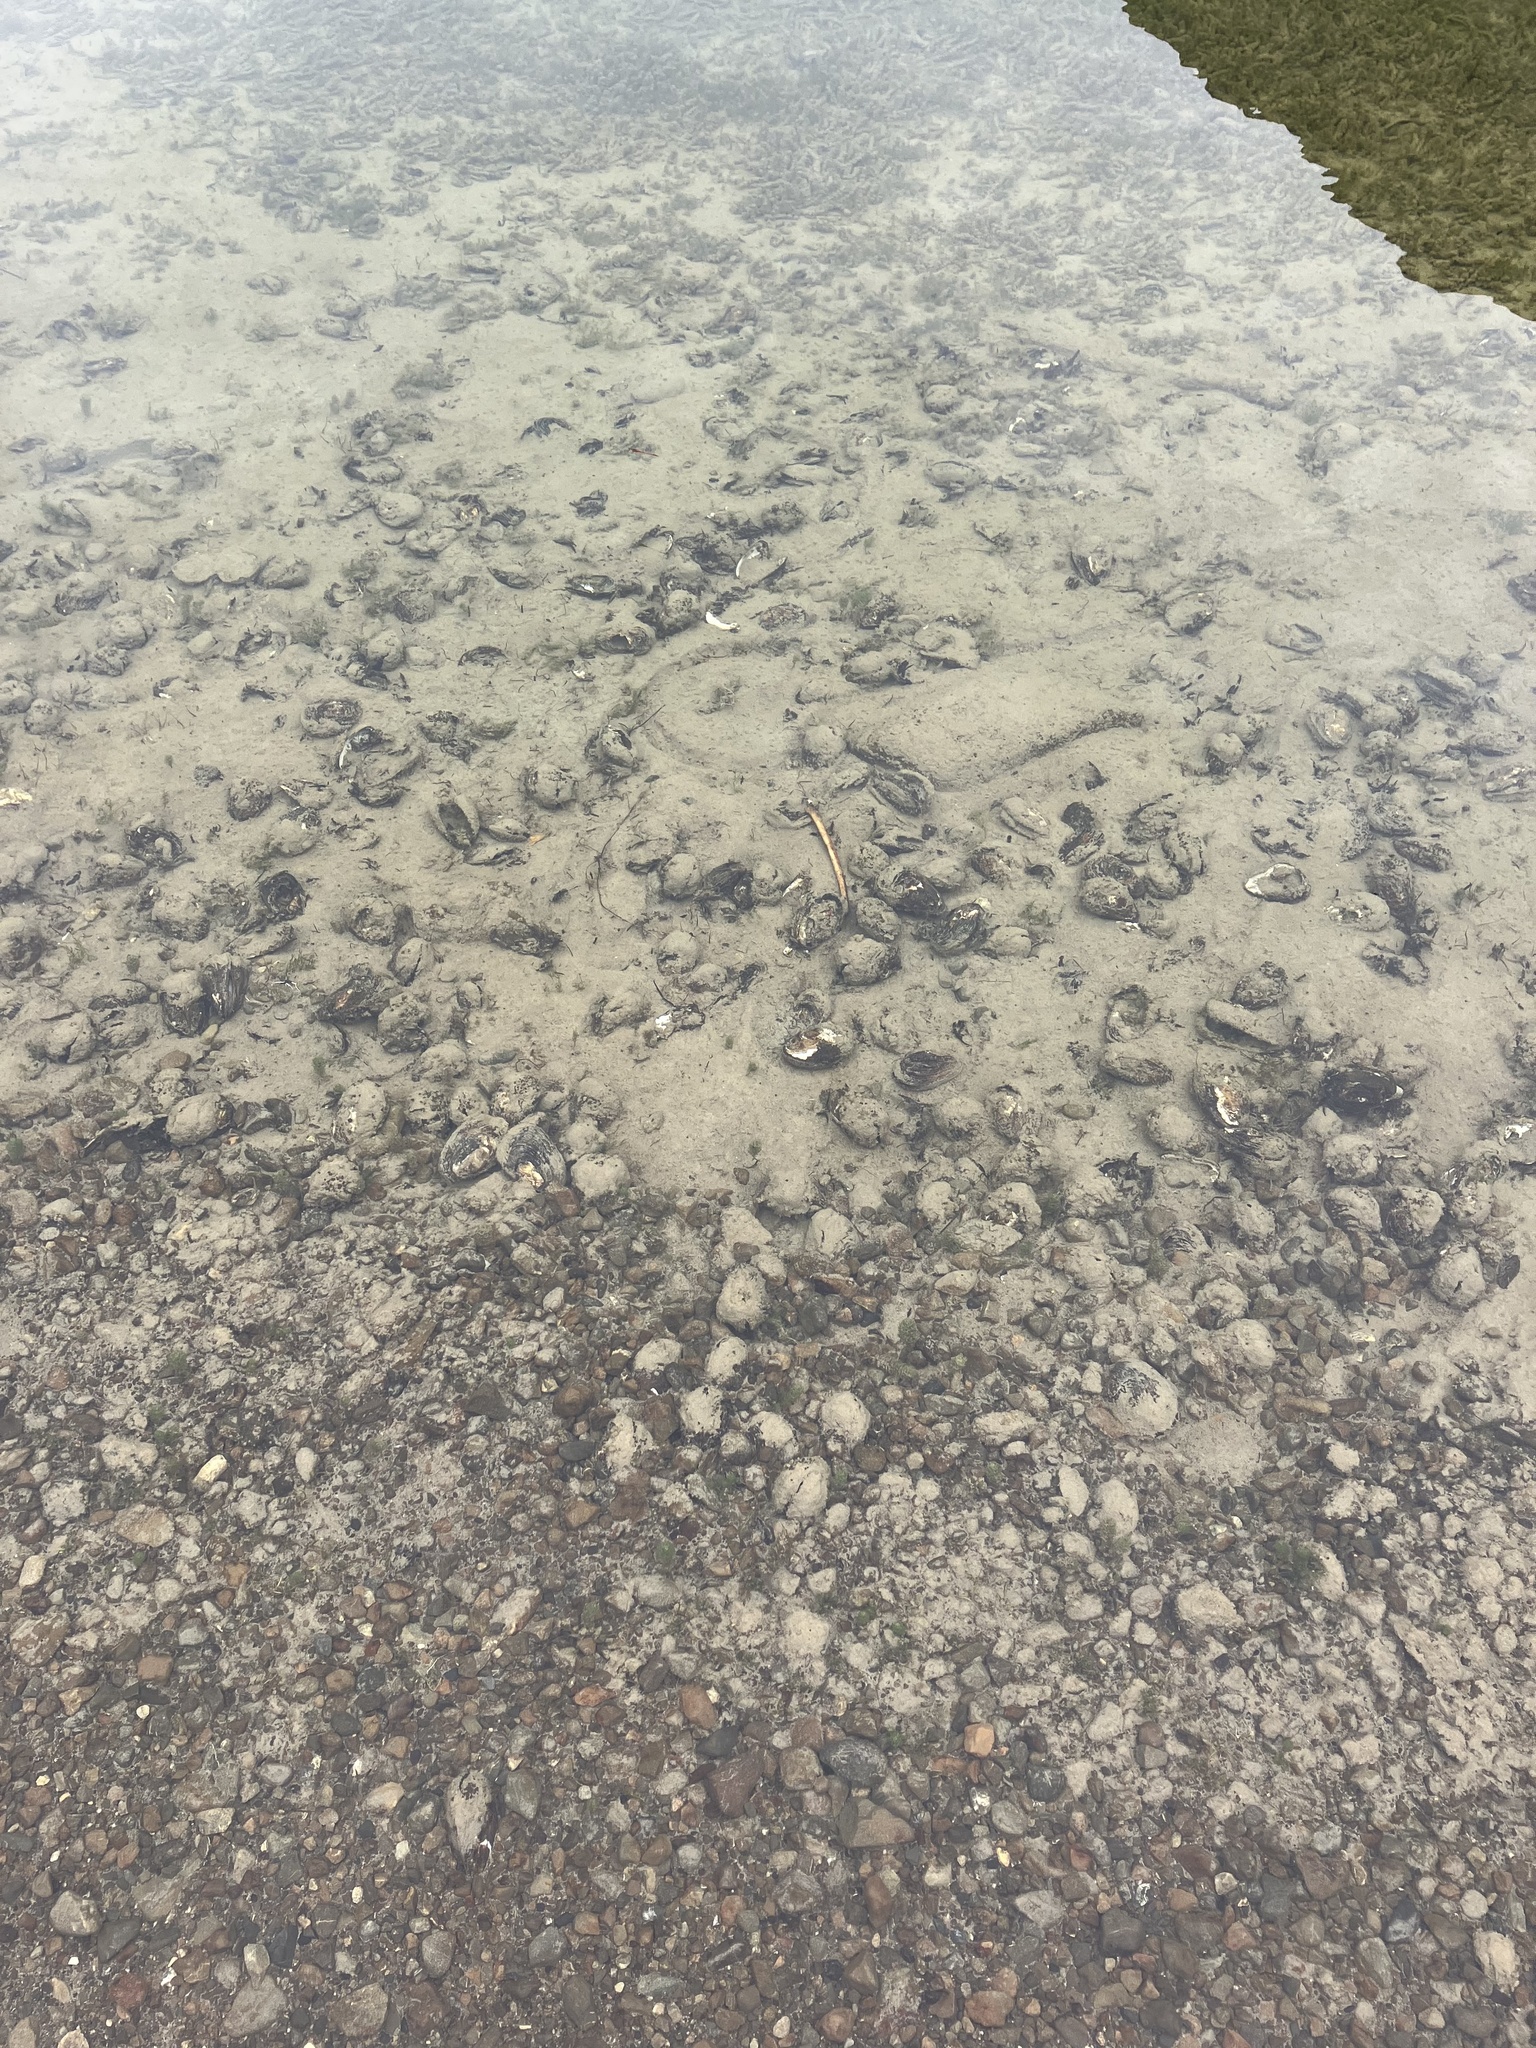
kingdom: Animalia
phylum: Mollusca
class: Bivalvia
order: Unionida
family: Hyriidae
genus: Echyridella
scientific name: Echyridella menziesii
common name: New zealand freshwater mussel
